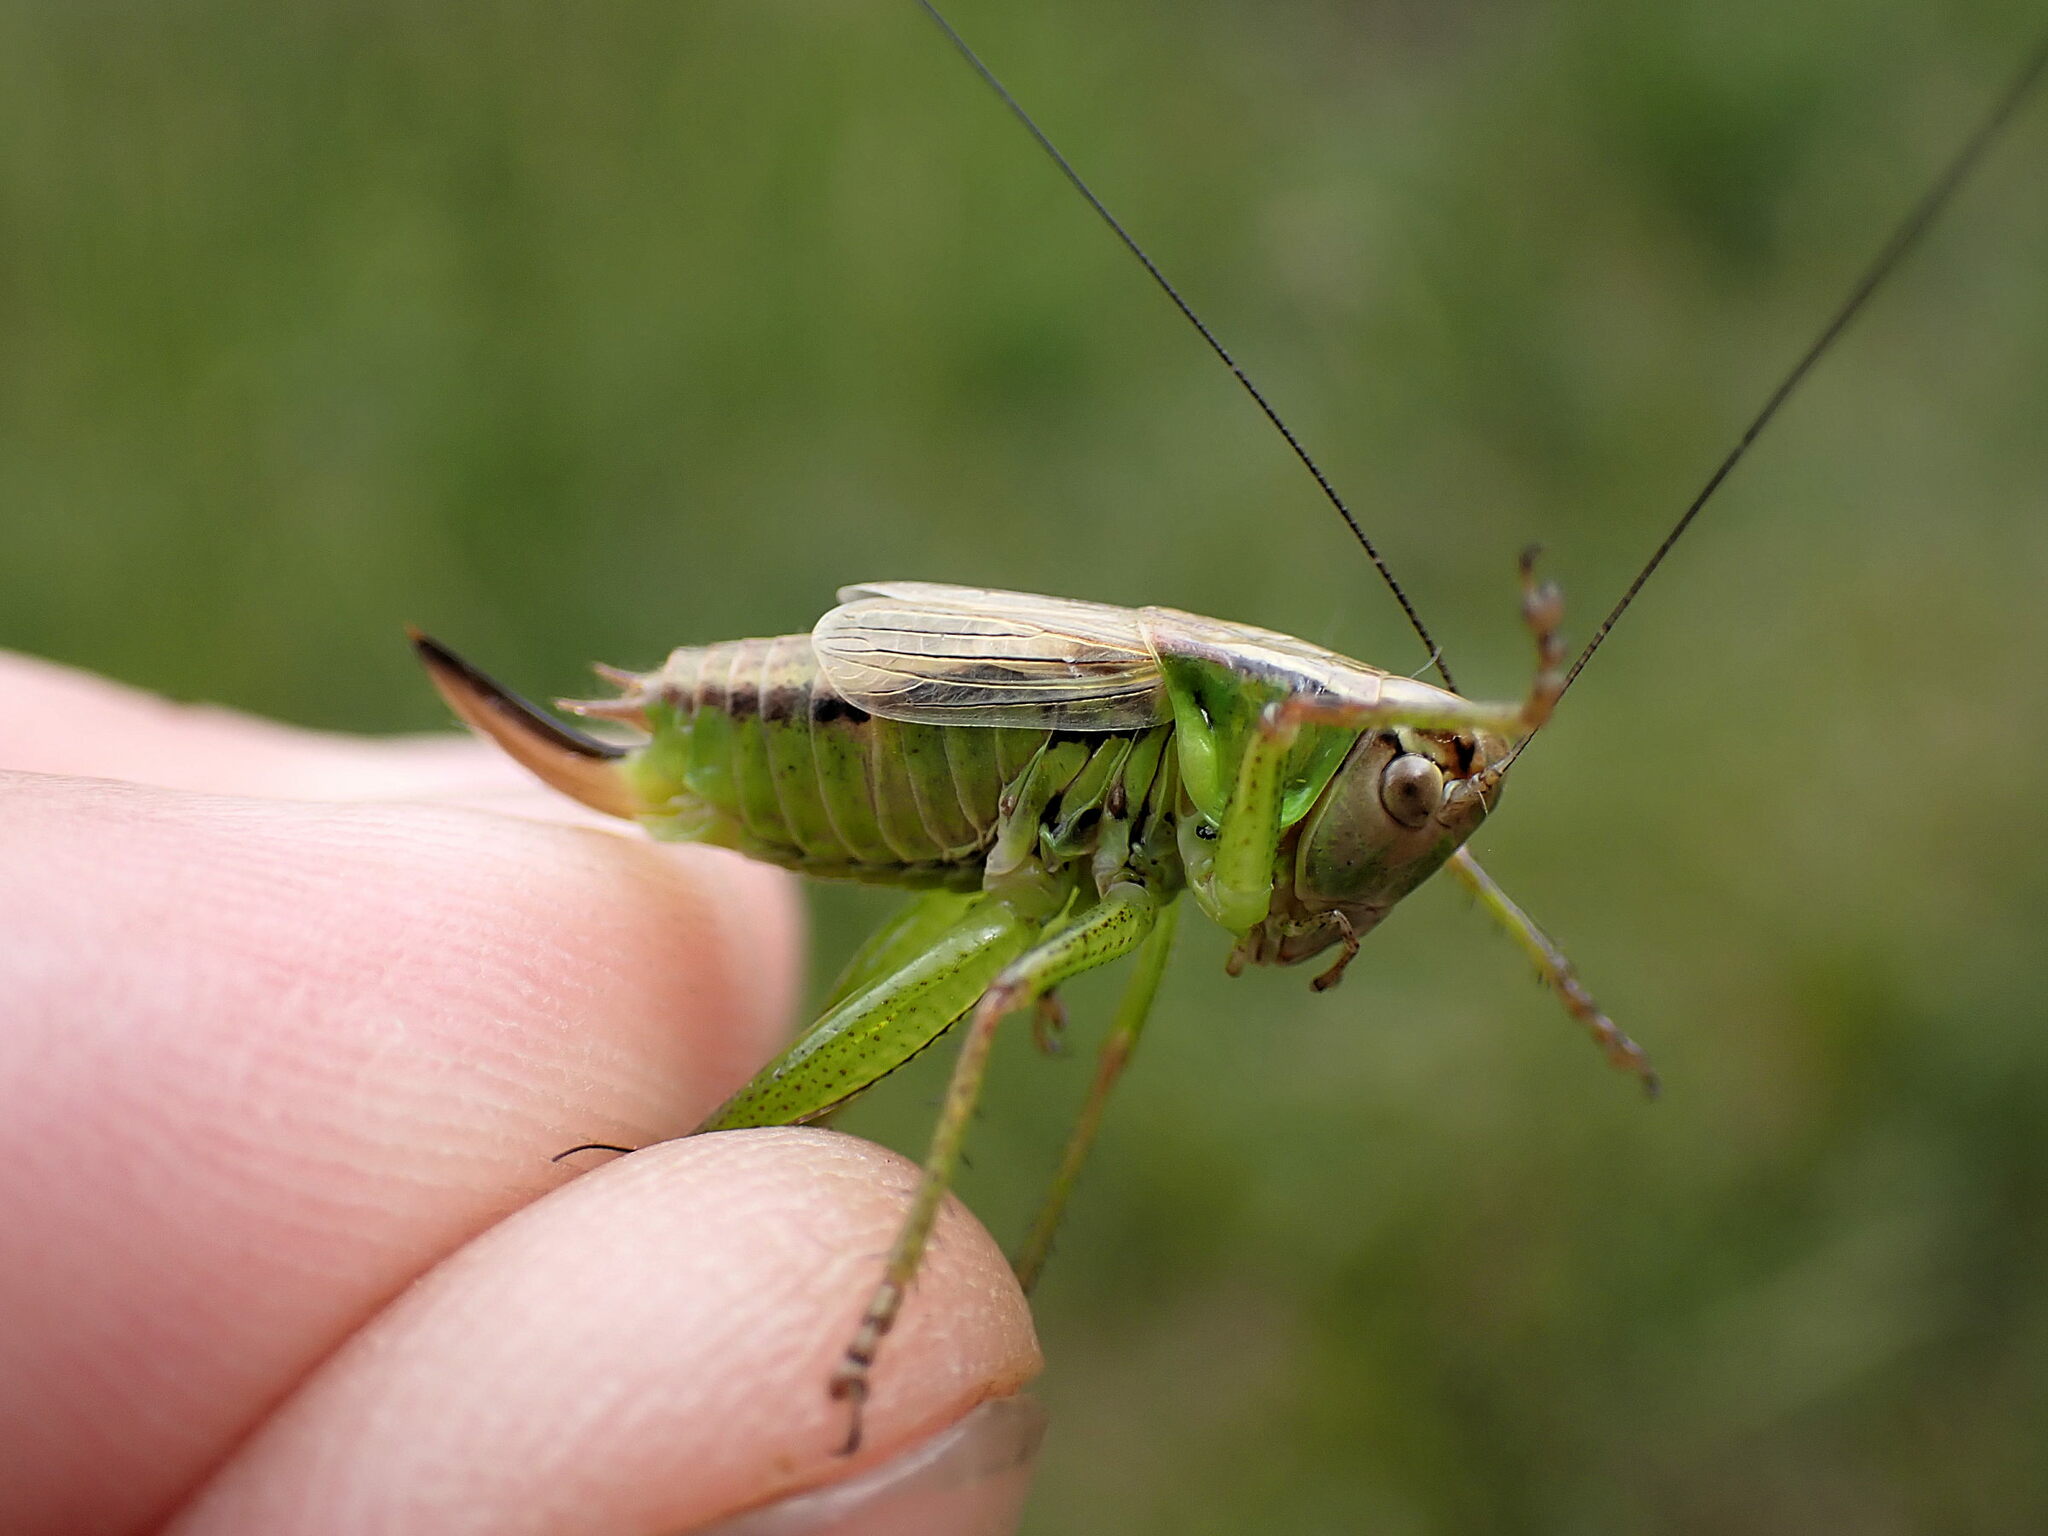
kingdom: Animalia
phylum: Arthropoda
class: Insecta
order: Orthoptera
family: Tettigoniidae
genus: Roeseliana
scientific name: Roeseliana roeselii
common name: Roesel's bush cricket
